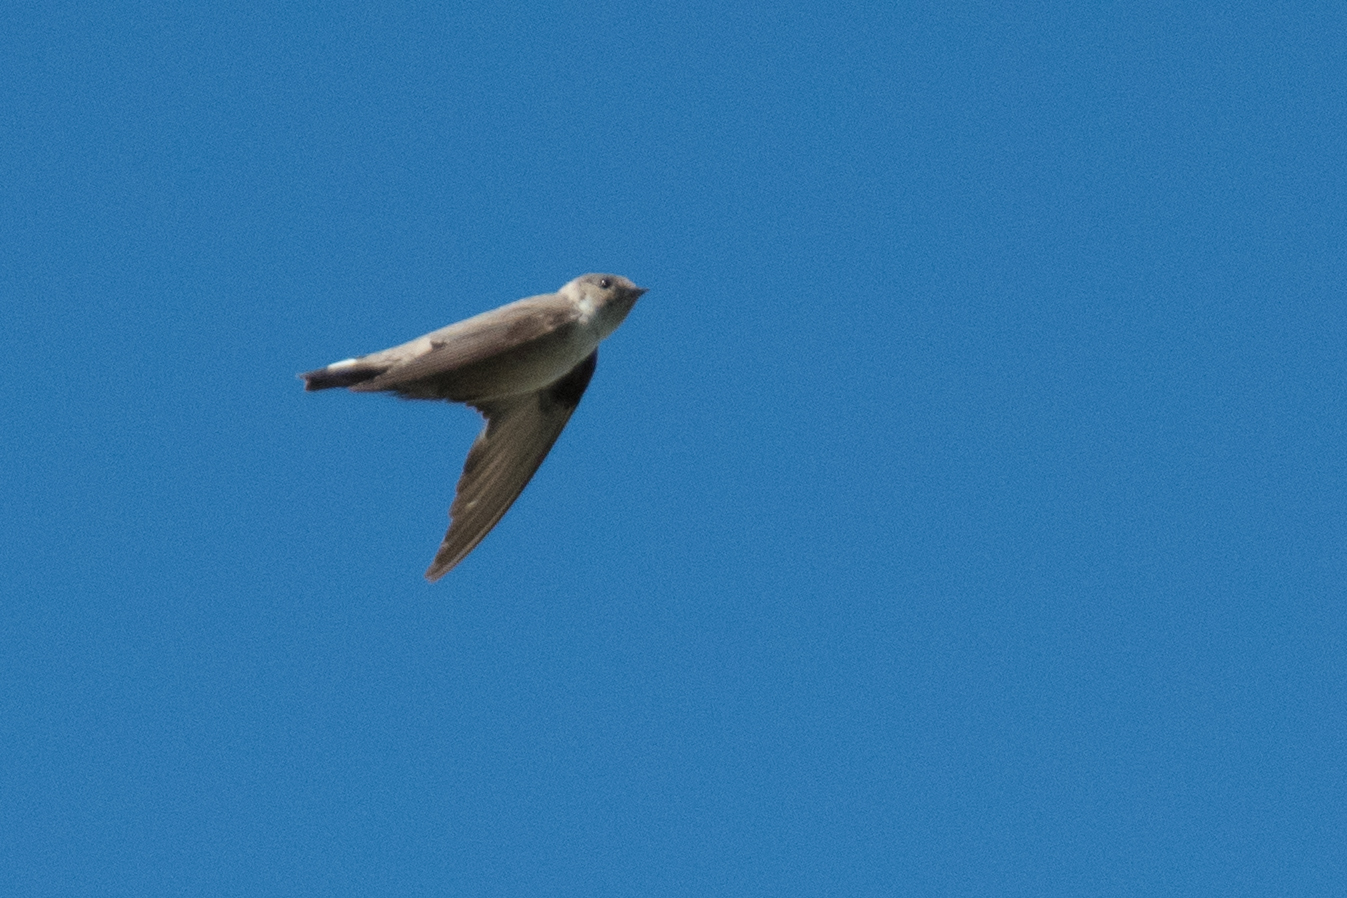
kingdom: Animalia
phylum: Chordata
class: Aves
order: Passeriformes
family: Hirundinidae
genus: Ptyonoprogne
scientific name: Ptyonoprogne rupestris
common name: Eurasian crag martin
